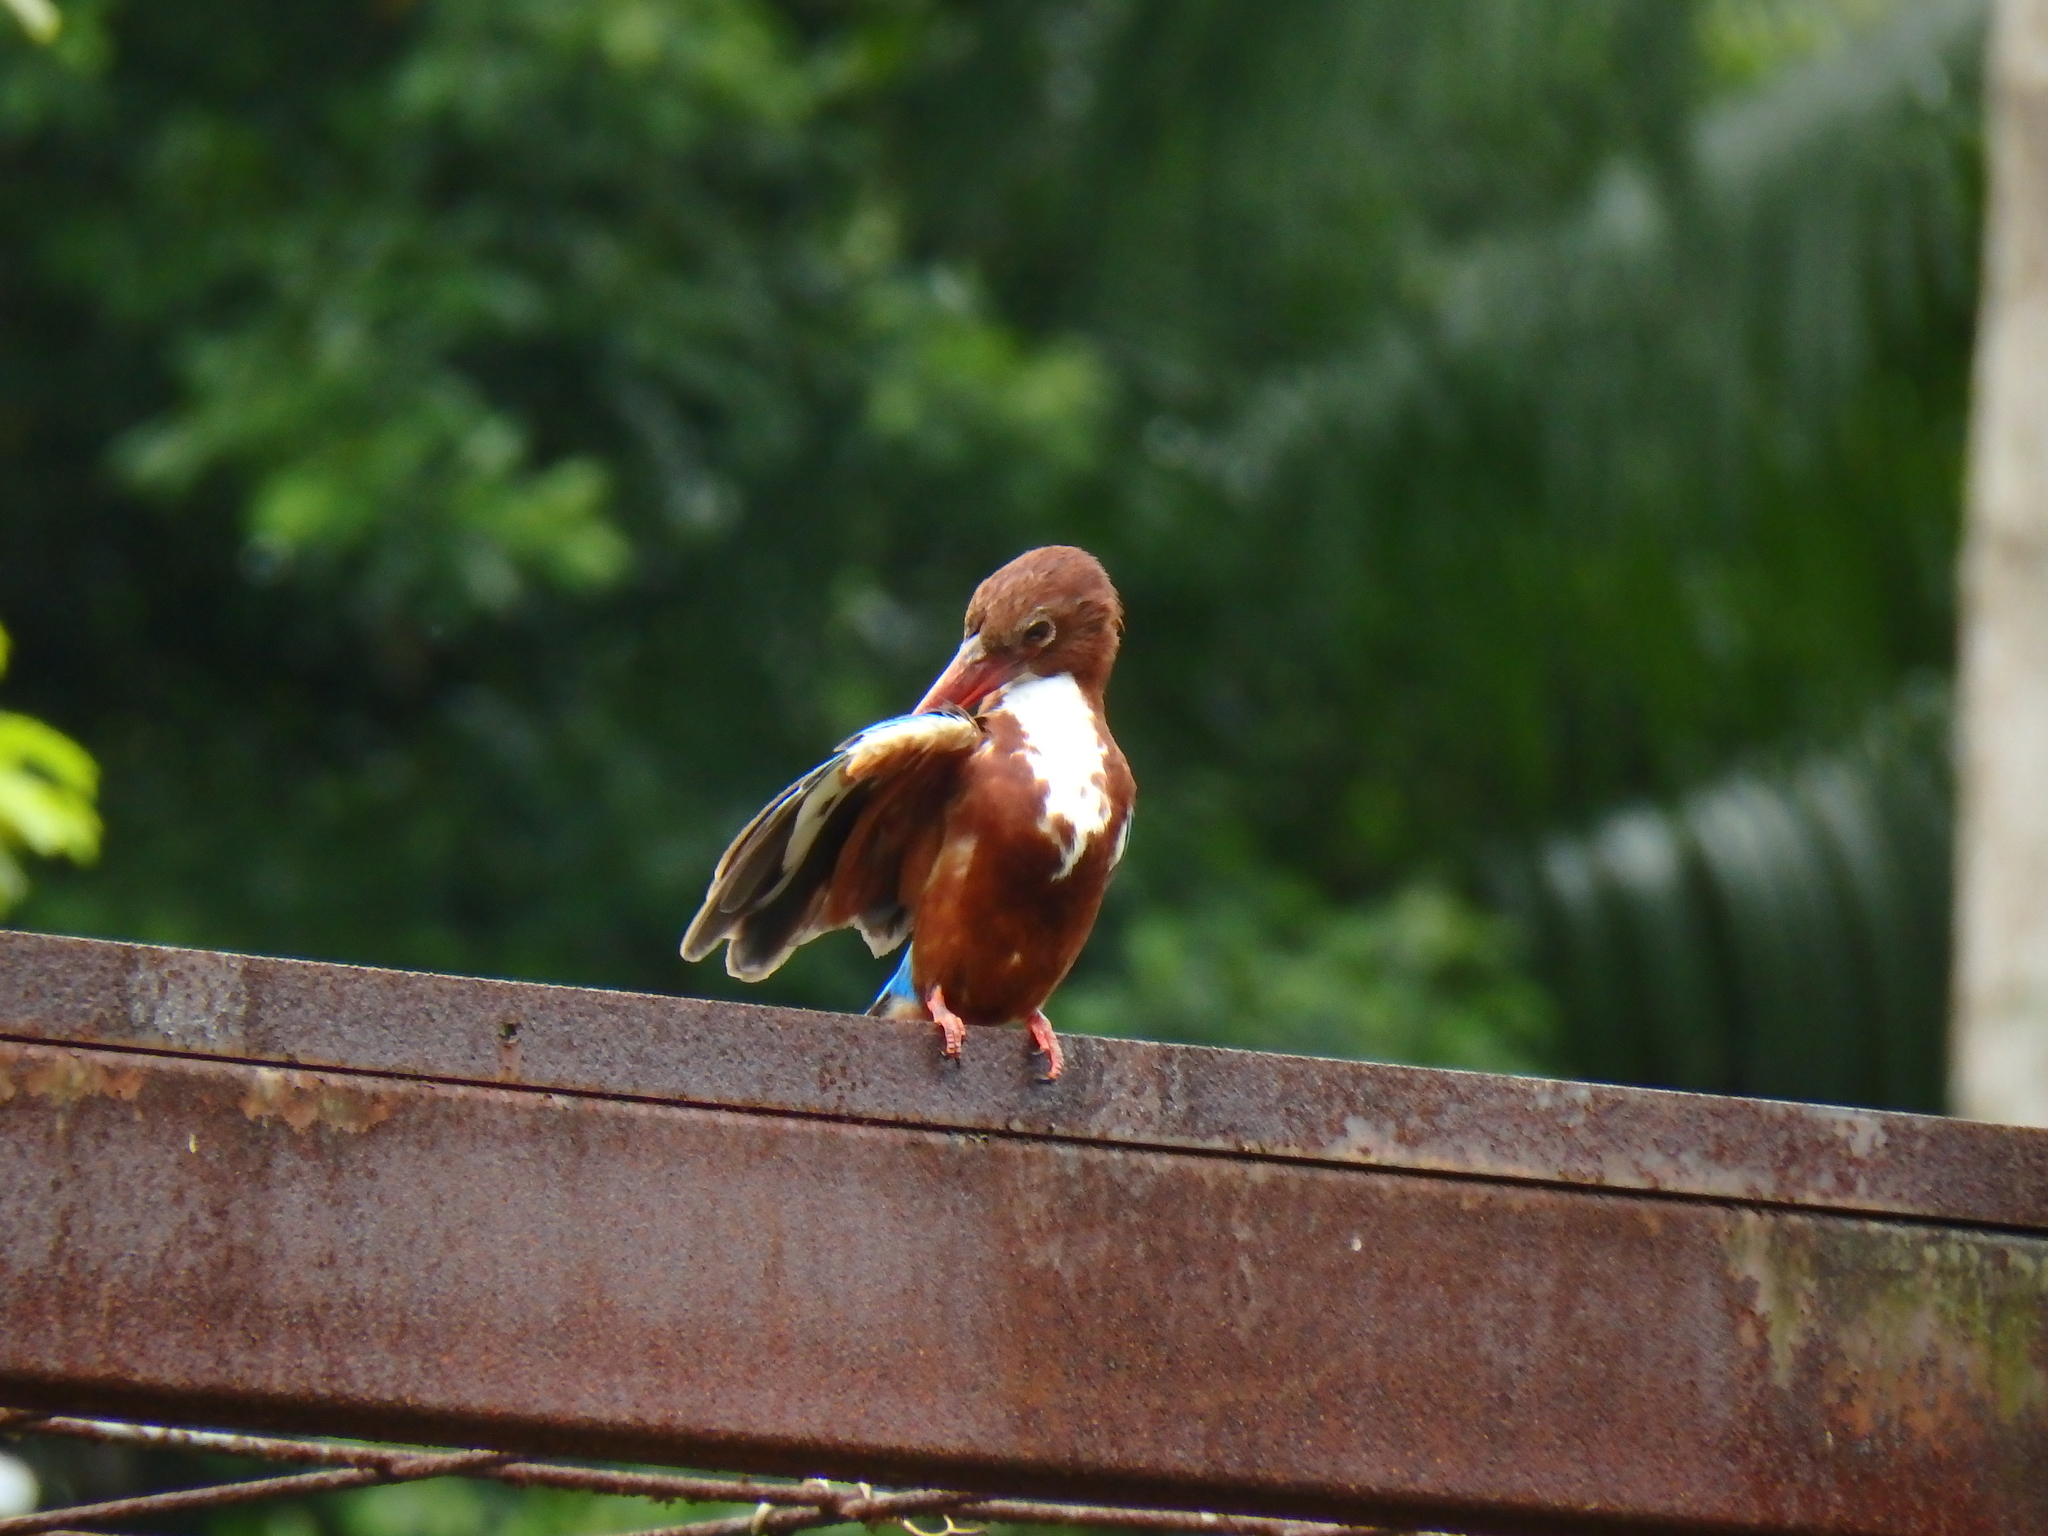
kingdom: Animalia
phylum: Chordata
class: Aves
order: Coraciiformes
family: Alcedinidae
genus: Halcyon
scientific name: Halcyon smyrnensis
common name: White-throated kingfisher
